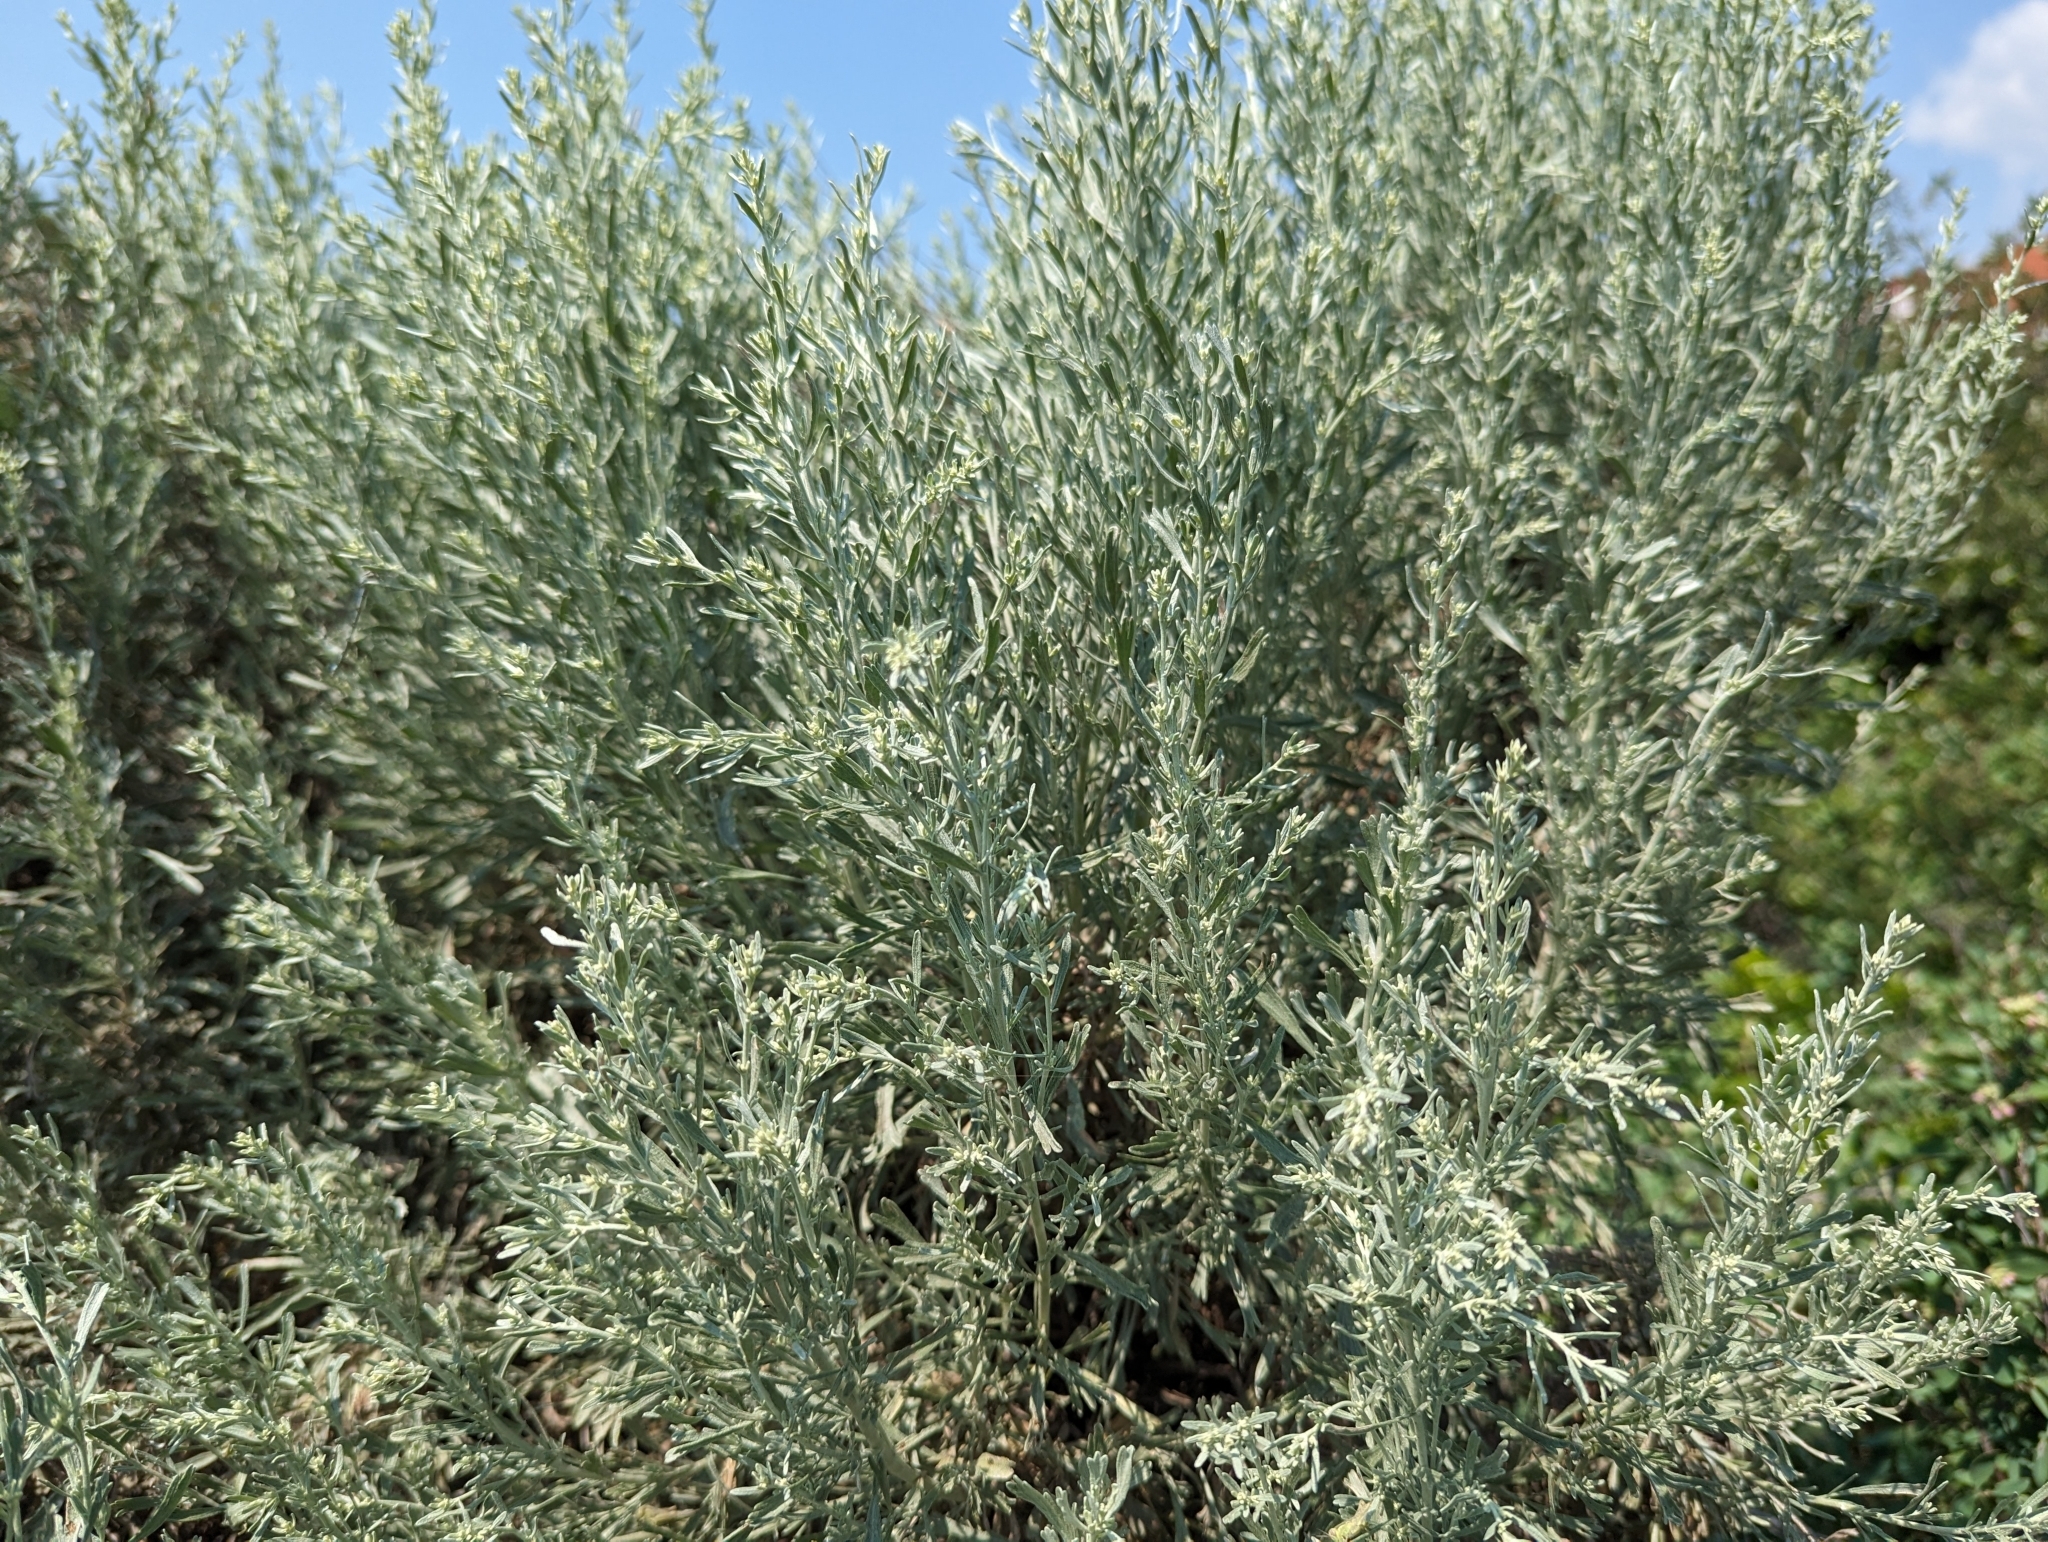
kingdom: Plantae
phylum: Tracheophyta
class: Magnoliopsida
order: Asterales
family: Asteraceae
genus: Artemisia
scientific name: Artemisia tridentata
